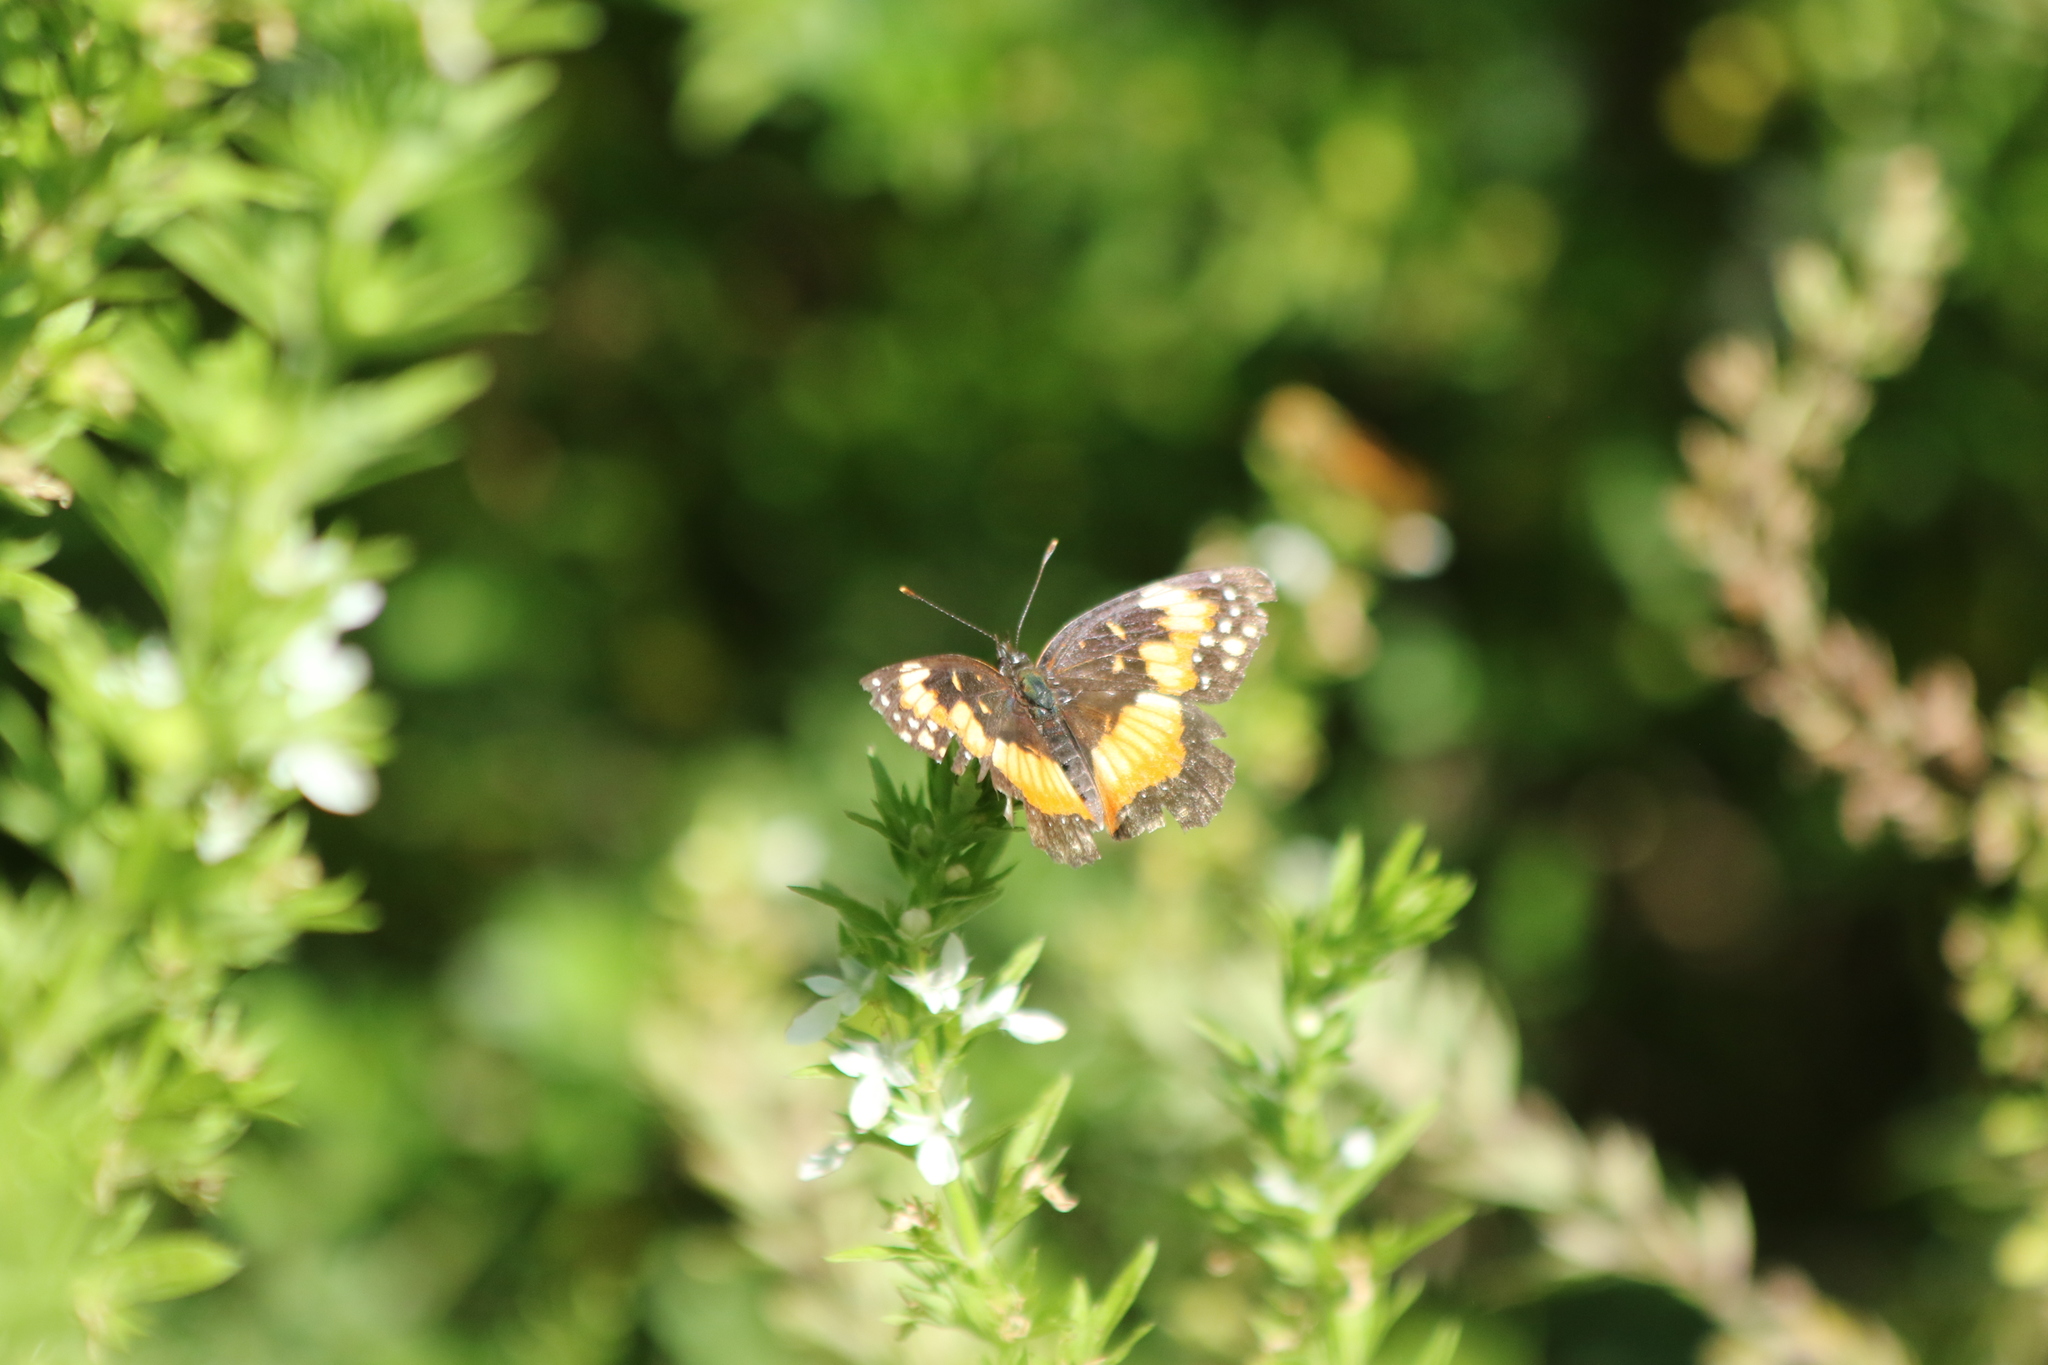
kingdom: Animalia
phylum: Arthropoda
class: Insecta
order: Lepidoptera
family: Nymphalidae
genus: Chlosyne
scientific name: Chlosyne lacinia
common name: Bordered patch
